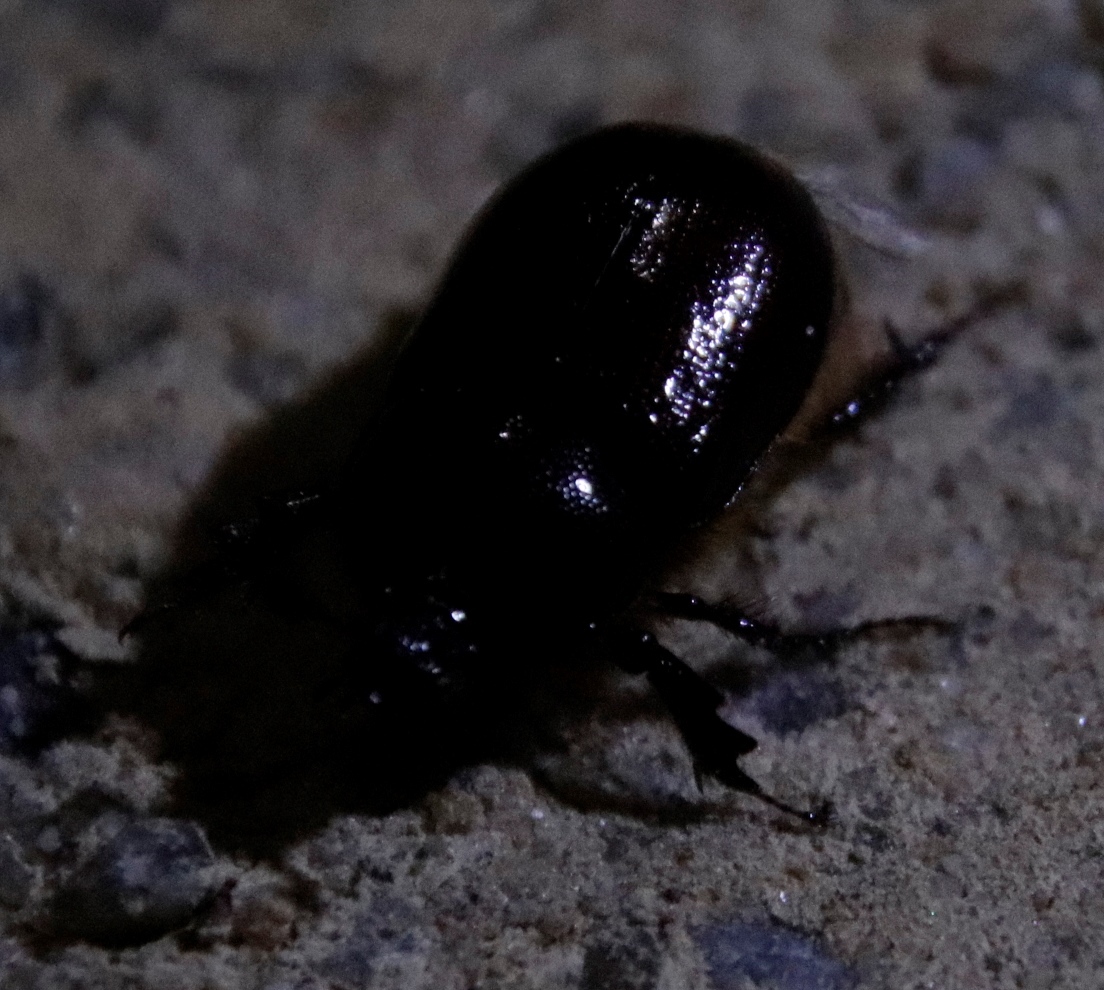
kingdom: Animalia
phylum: Arthropoda
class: Insecta
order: Coleoptera
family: Scarabaeidae
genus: Kirprellius
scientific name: Kirprellius syrichtus
